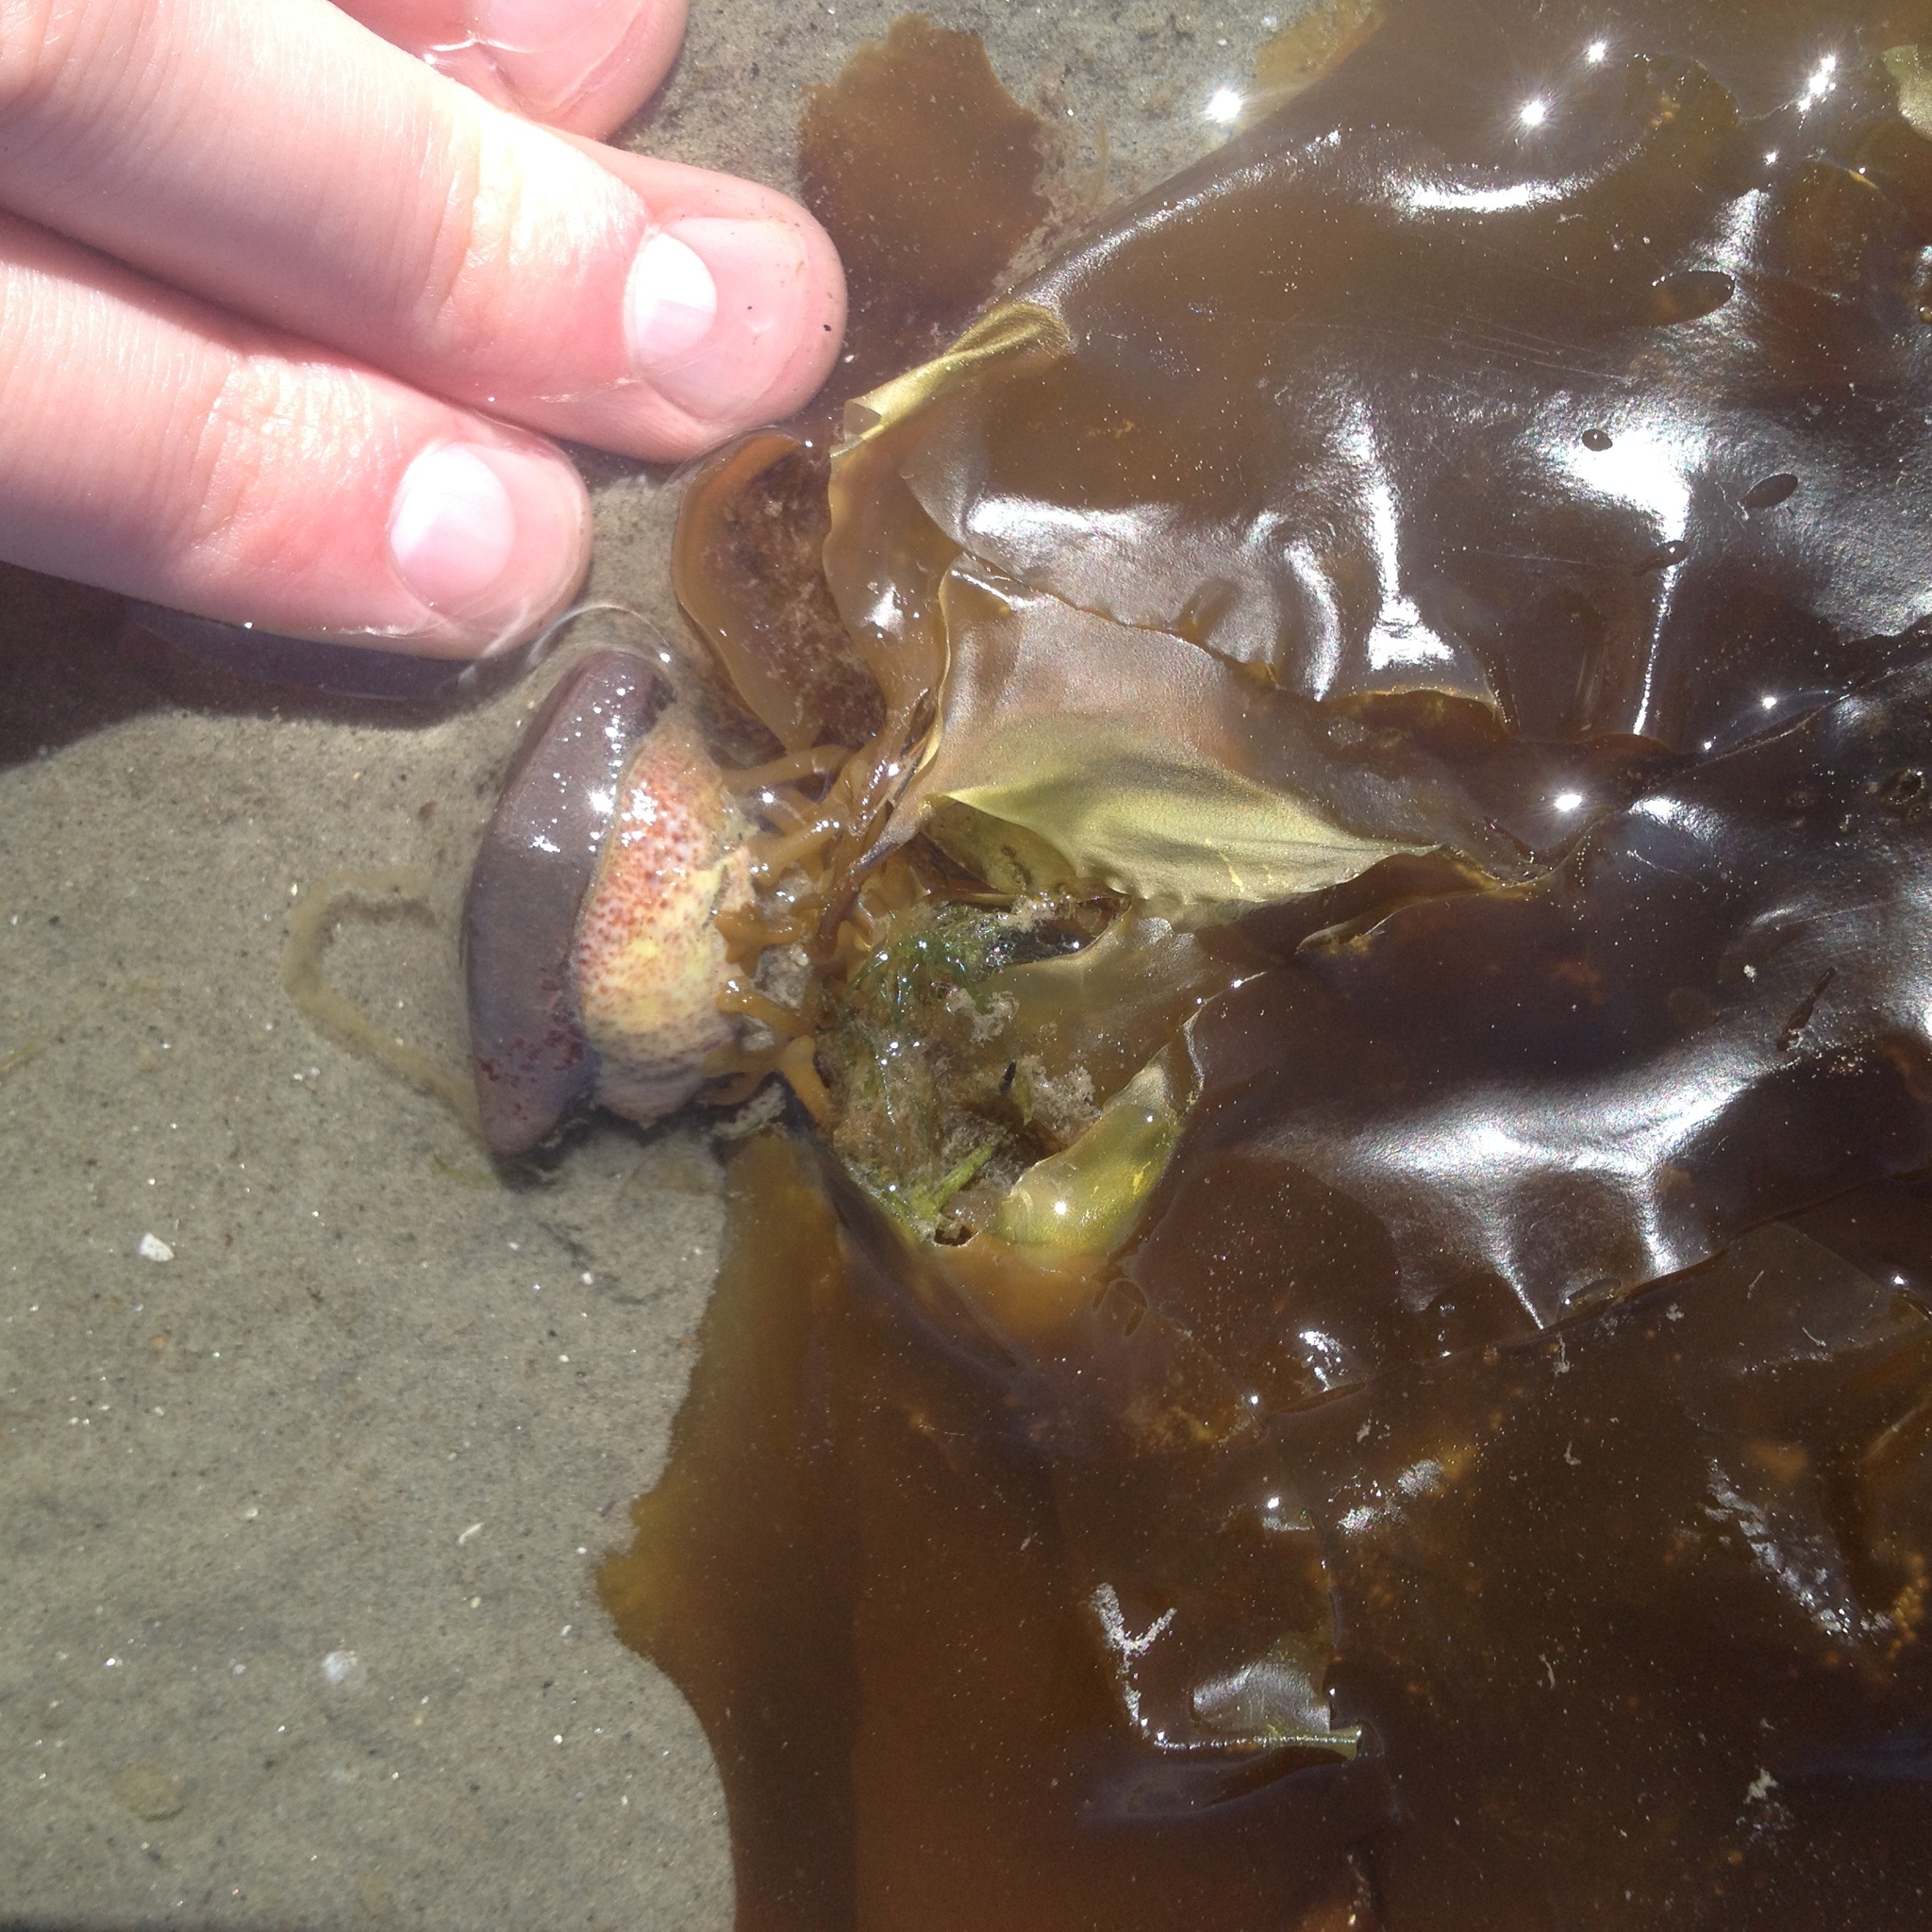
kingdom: Chromista
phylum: Ochrophyta
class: Phaeophyceae
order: Laminariales
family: Laminariaceae
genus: Saccharina
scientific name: Saccharina latissima
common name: Poor man's weather glass
